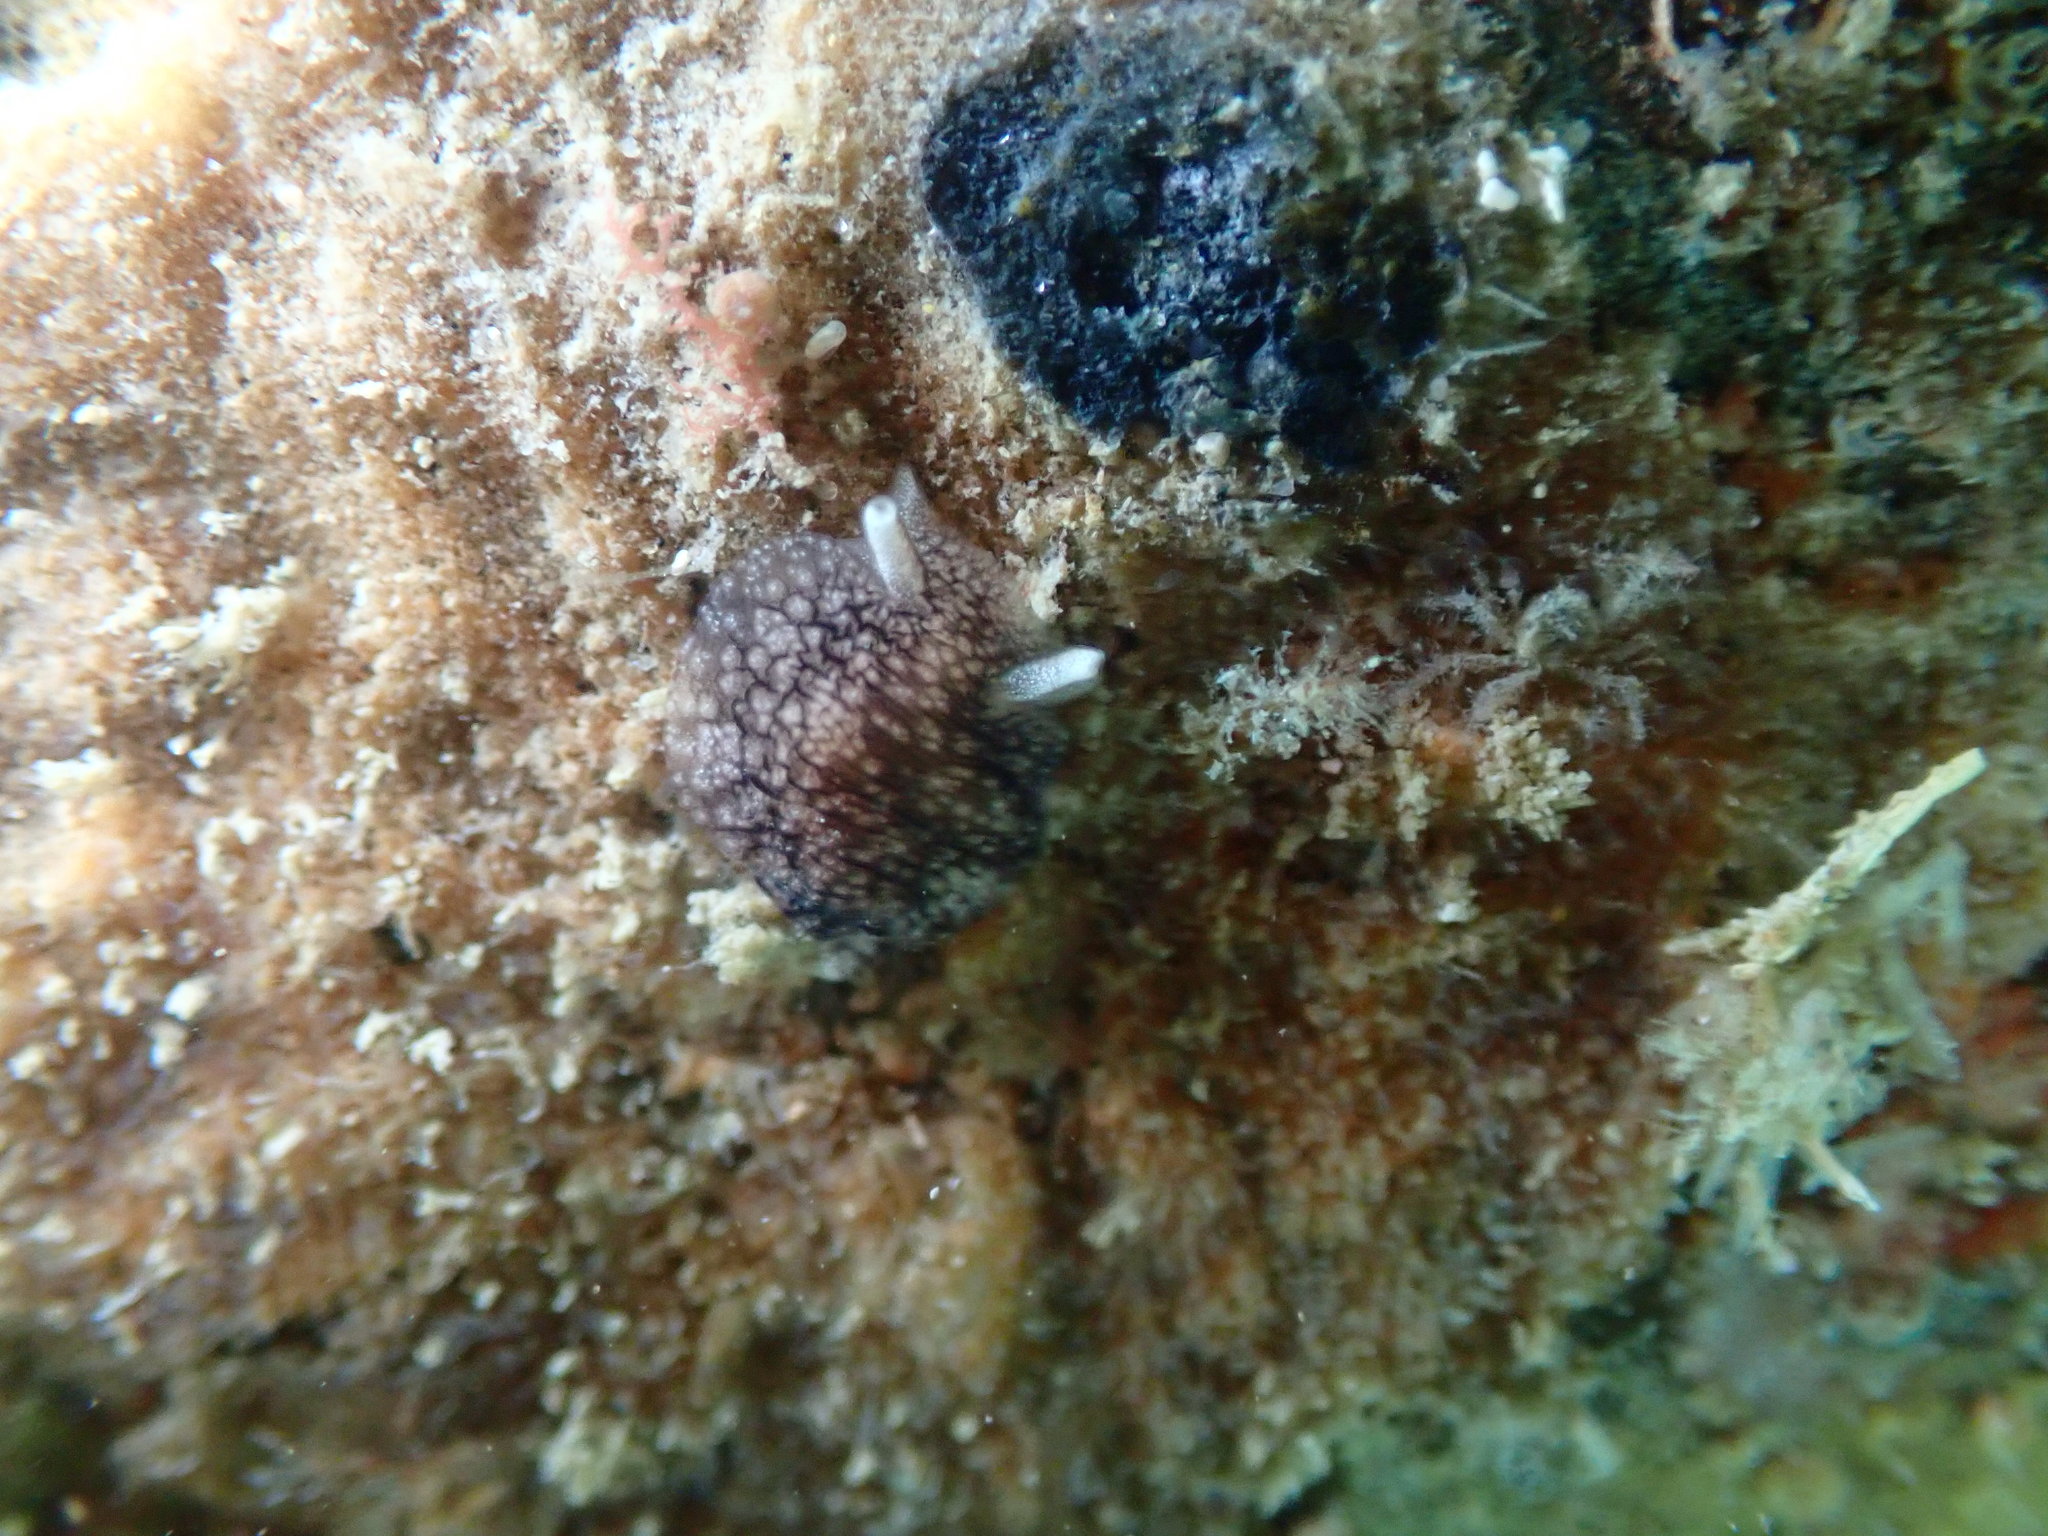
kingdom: Animalia
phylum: Mollusca
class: Gastropoda
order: Pleurobranchida
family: Pleurobranchaeidae
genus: Pleurobranchaea
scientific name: Pleurobranchaea maculata
